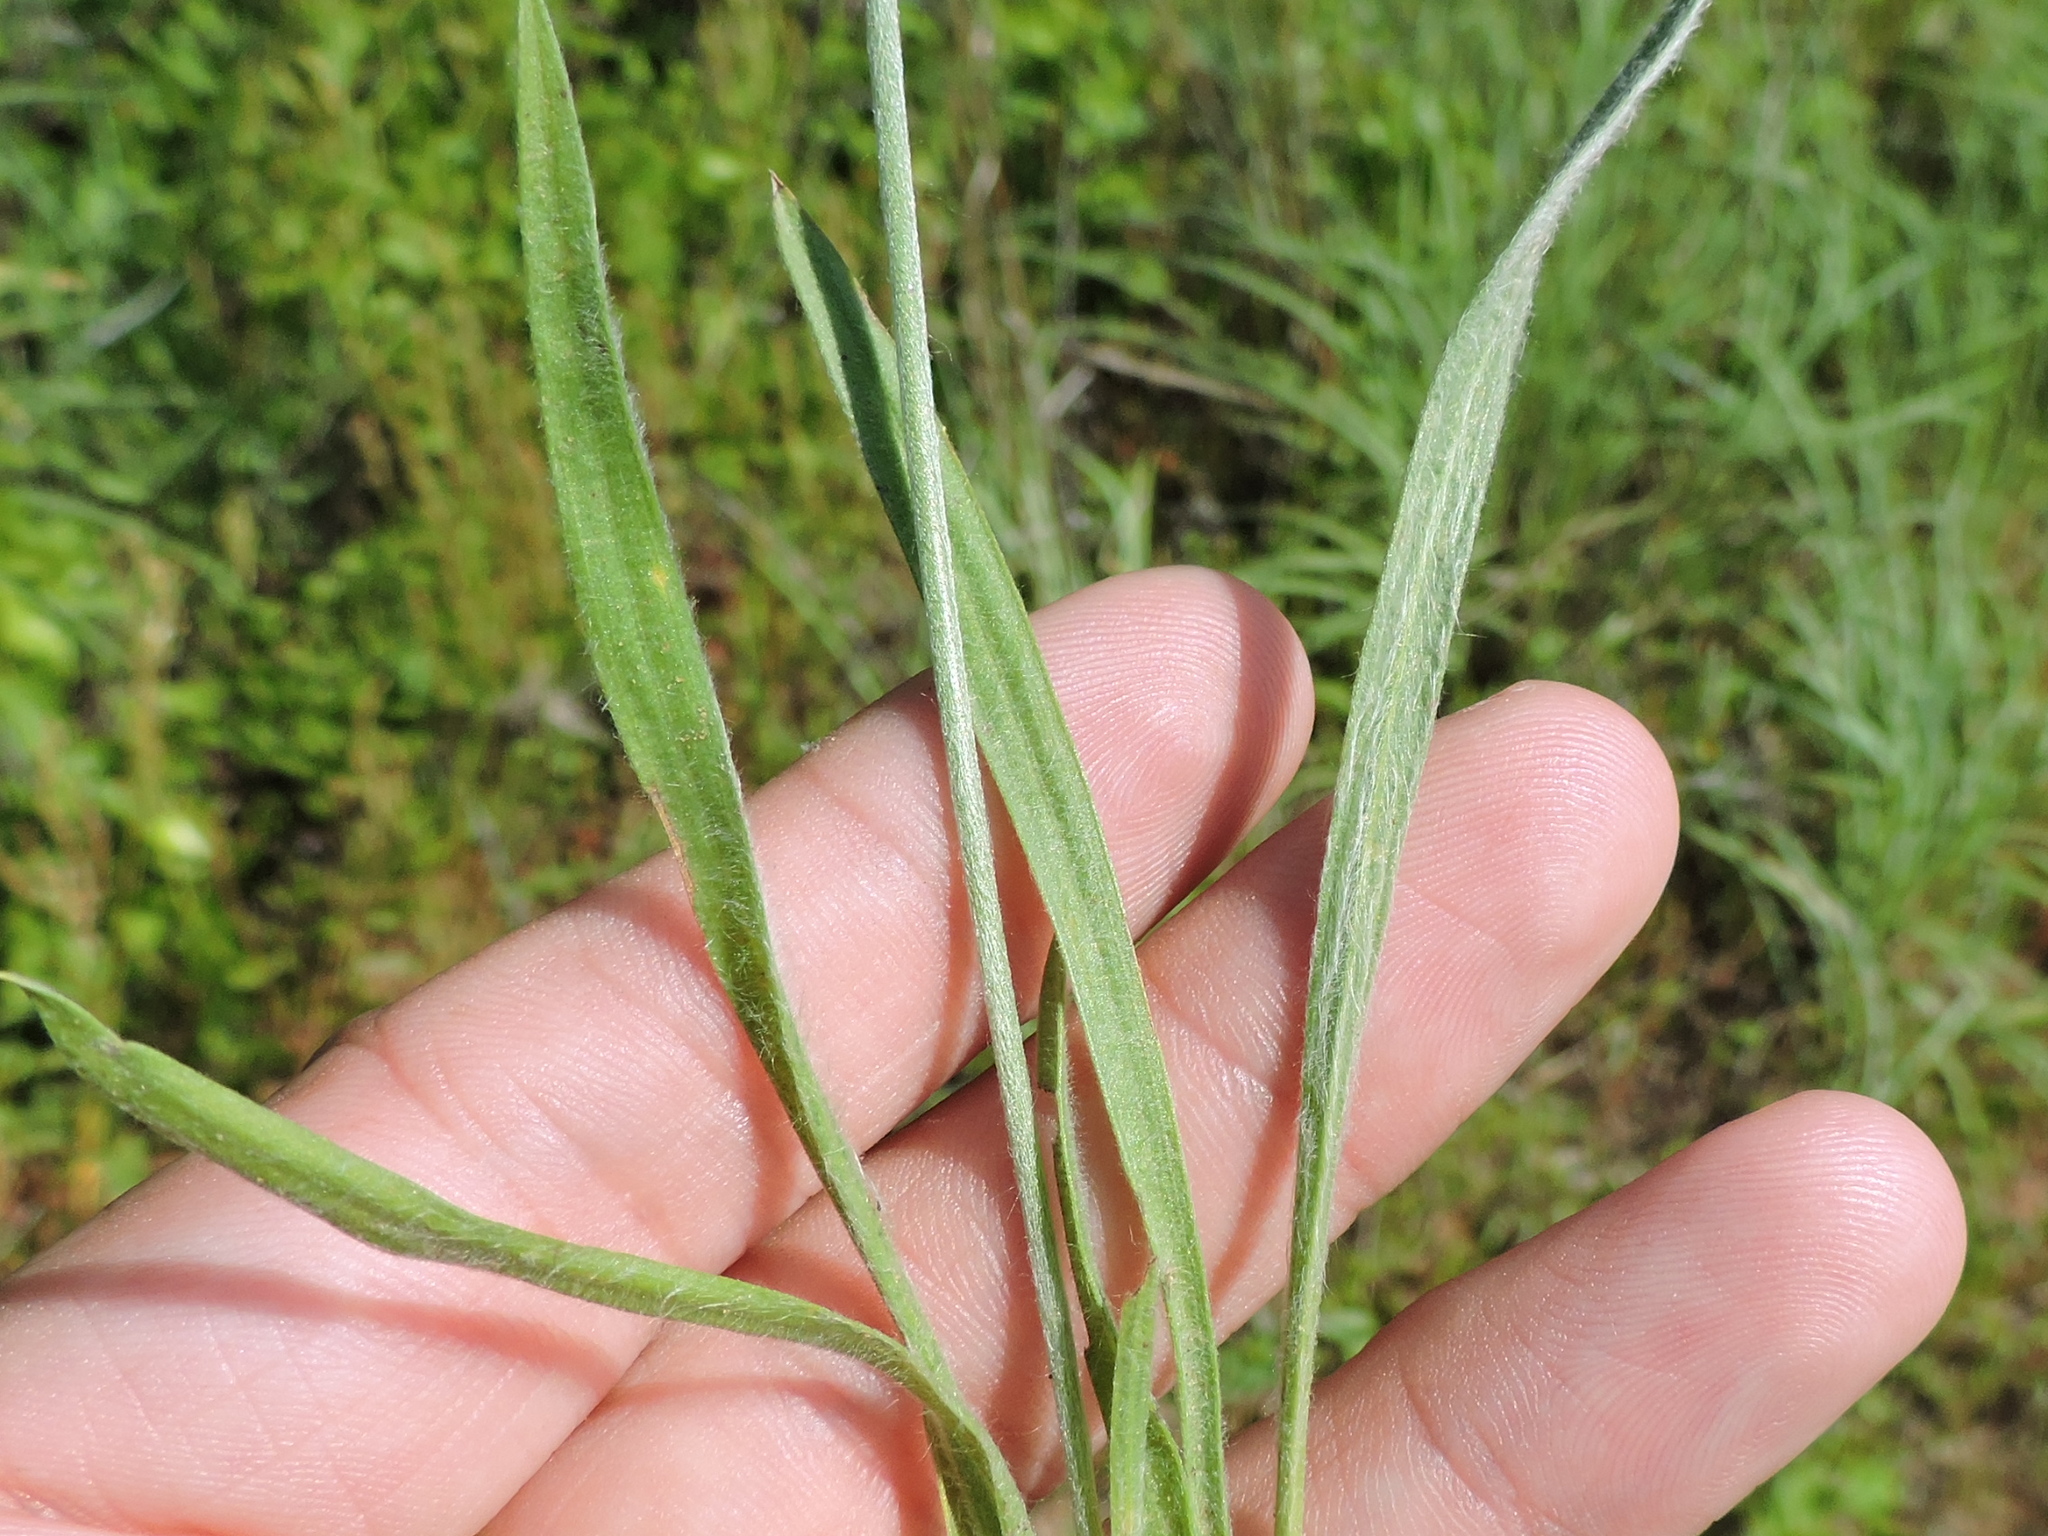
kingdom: Plantae
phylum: Tracheophyta
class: Magnoliopsida
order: Lamiales
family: Plantaginaceae
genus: Plantago
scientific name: Plantago wrightiana
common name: Wright's plantain
